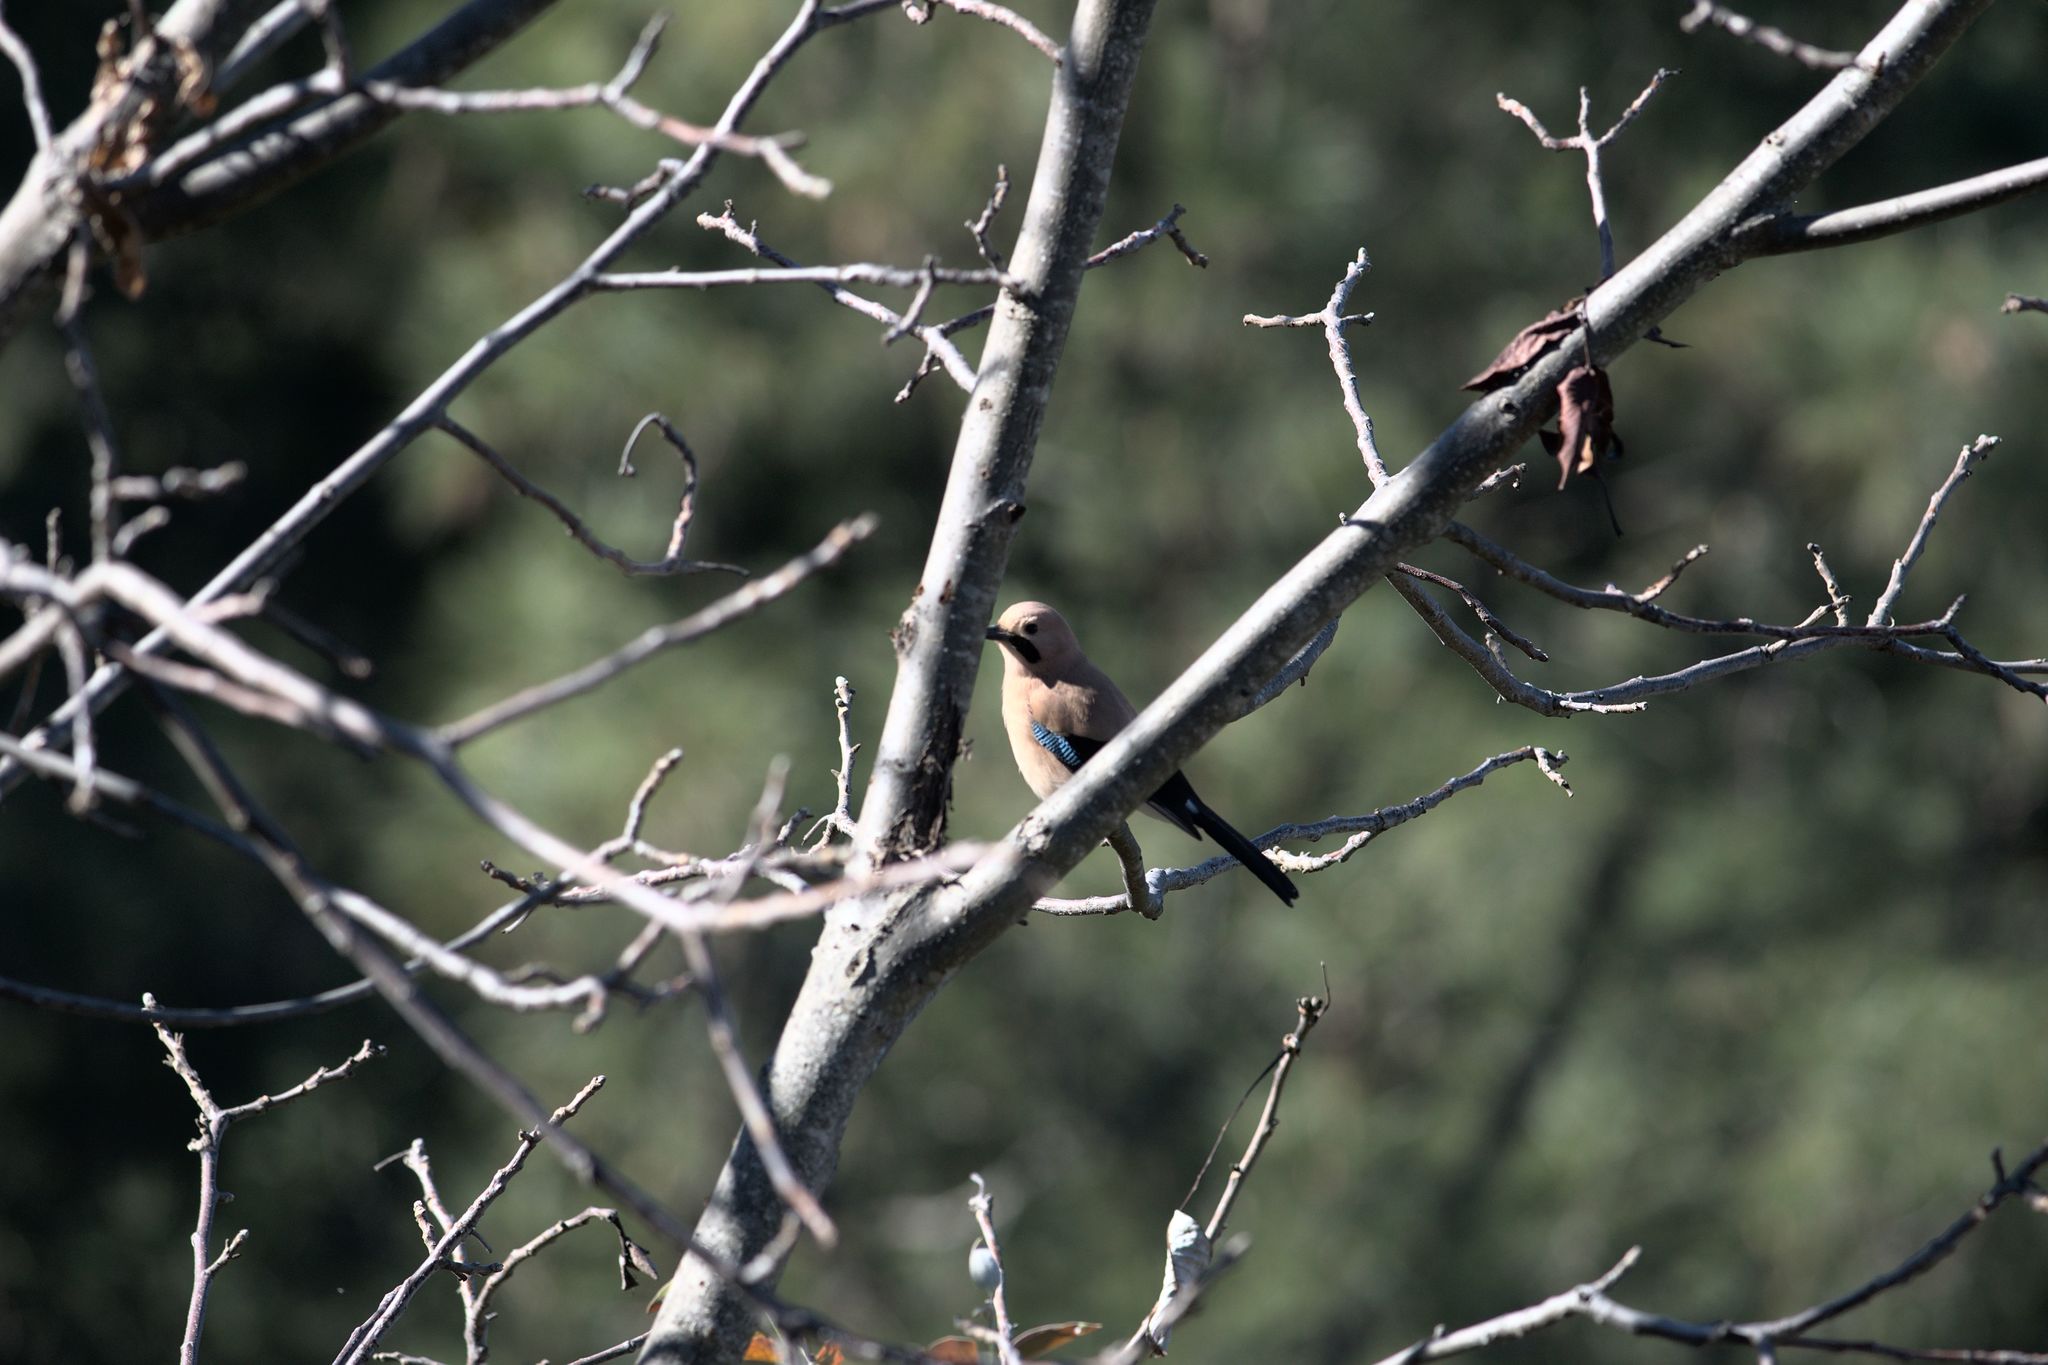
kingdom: Animalia
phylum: Chordata
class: Aves
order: Passeriformes
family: Corvidae
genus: Garrulus
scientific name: Garrulus glandarius
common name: Eurasian jay
